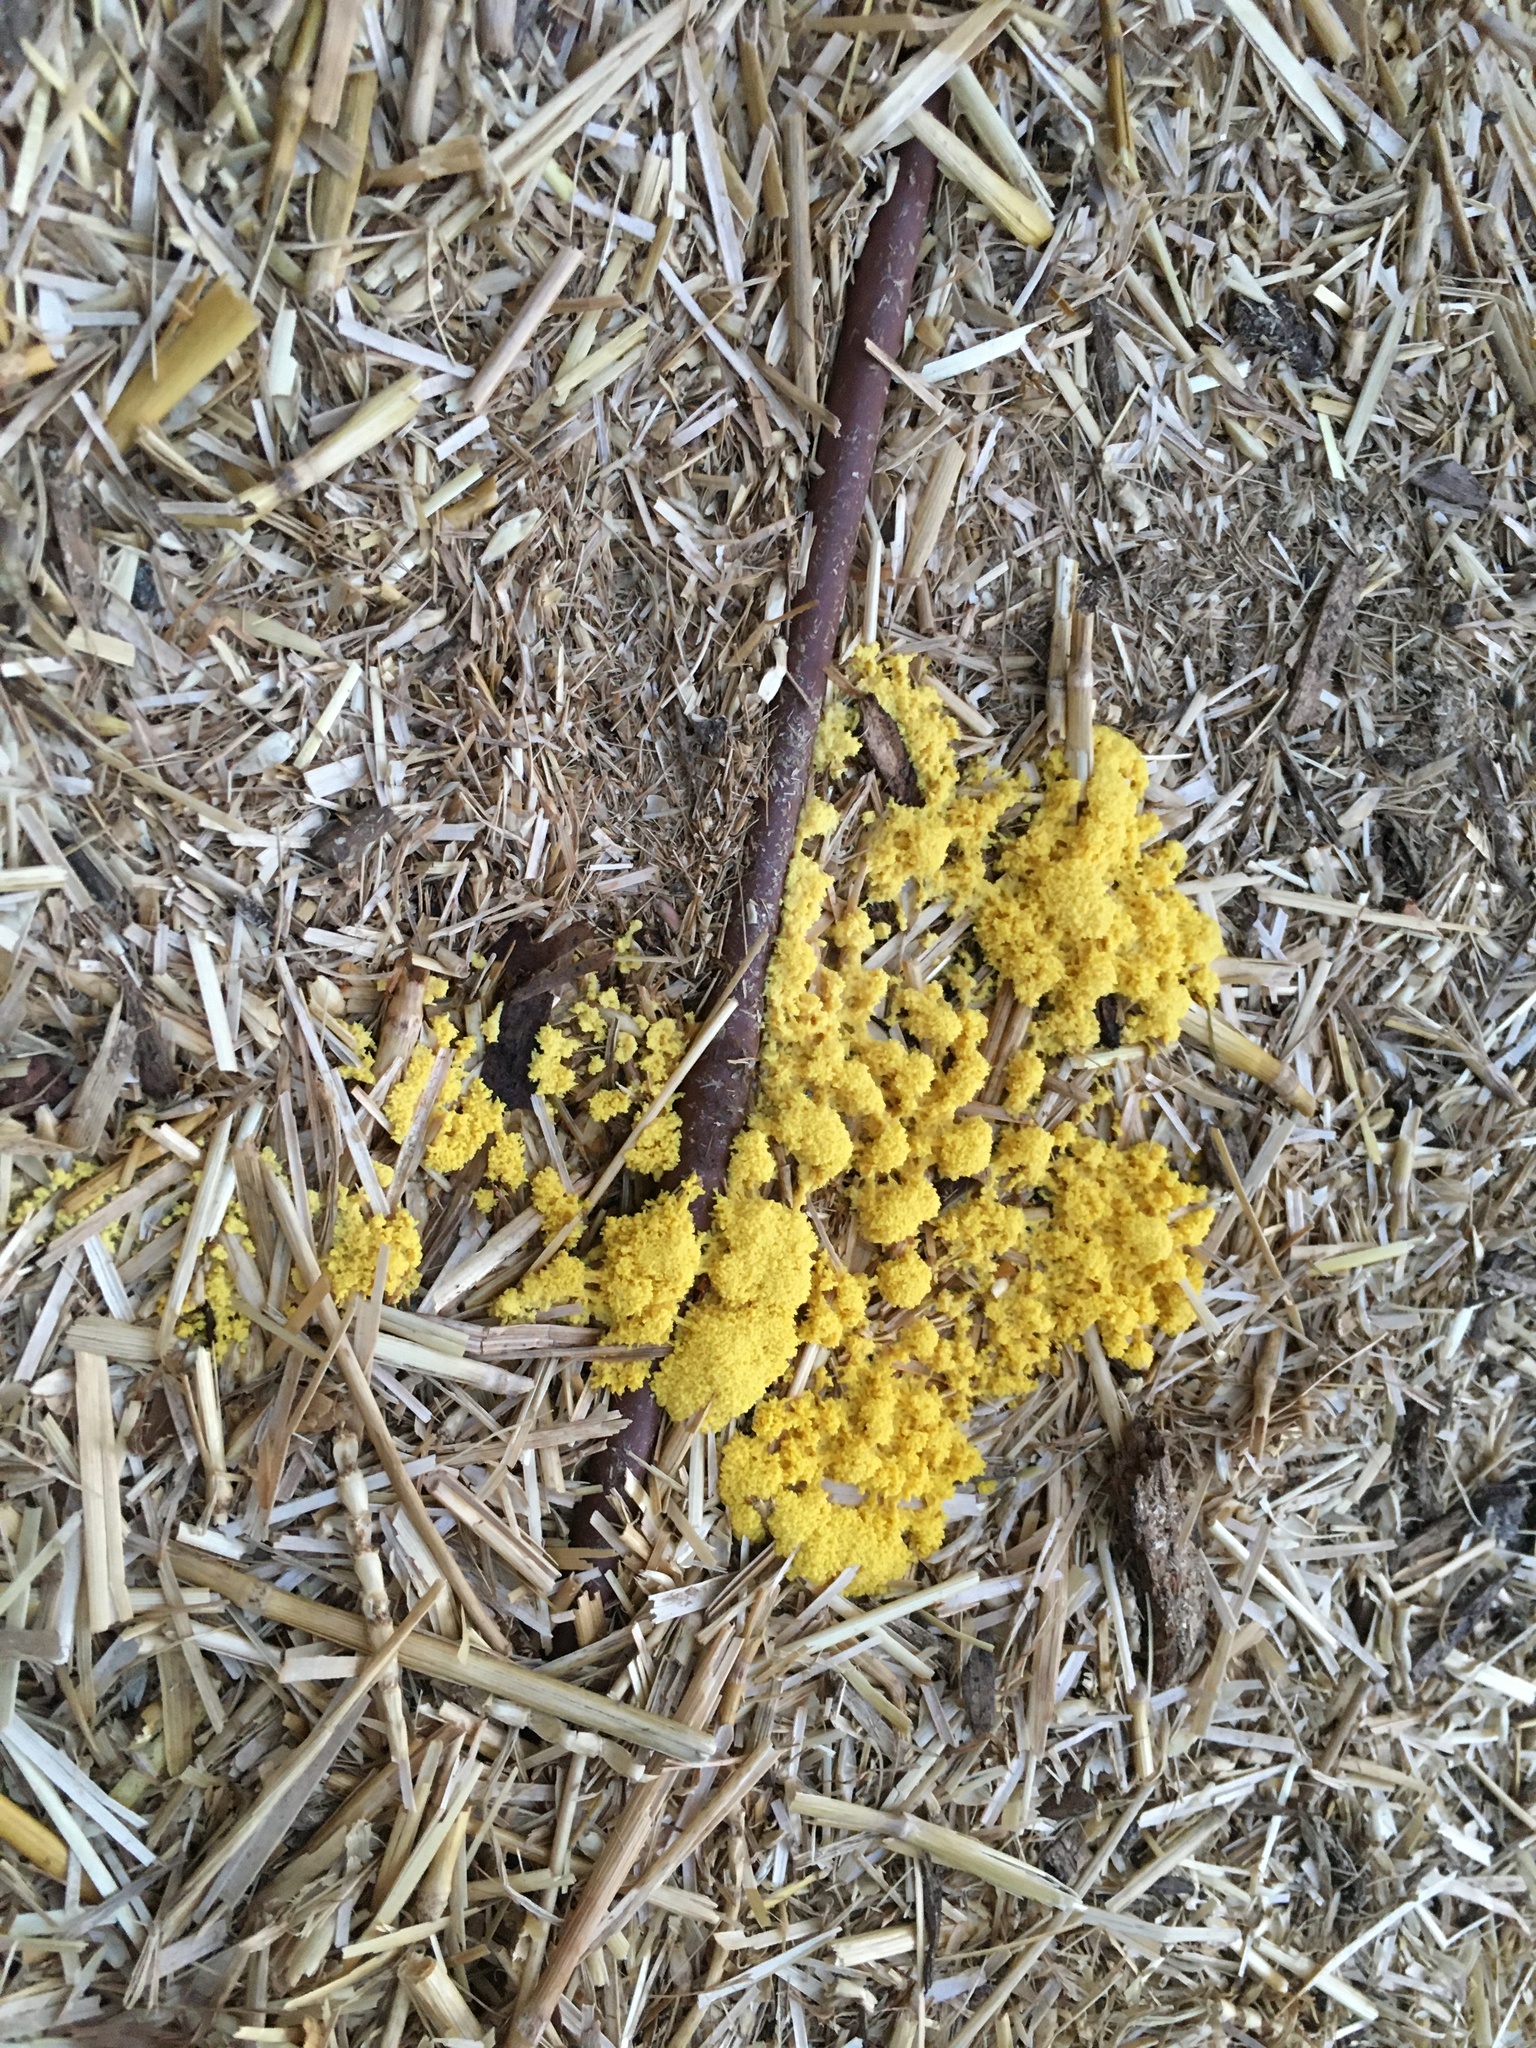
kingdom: Protozoa
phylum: Mycetozoa
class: Myxomycetes
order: Physarales
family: Physaraceae
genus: Fuligo
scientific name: Fuligo septica
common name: Dog vomit slime mold
